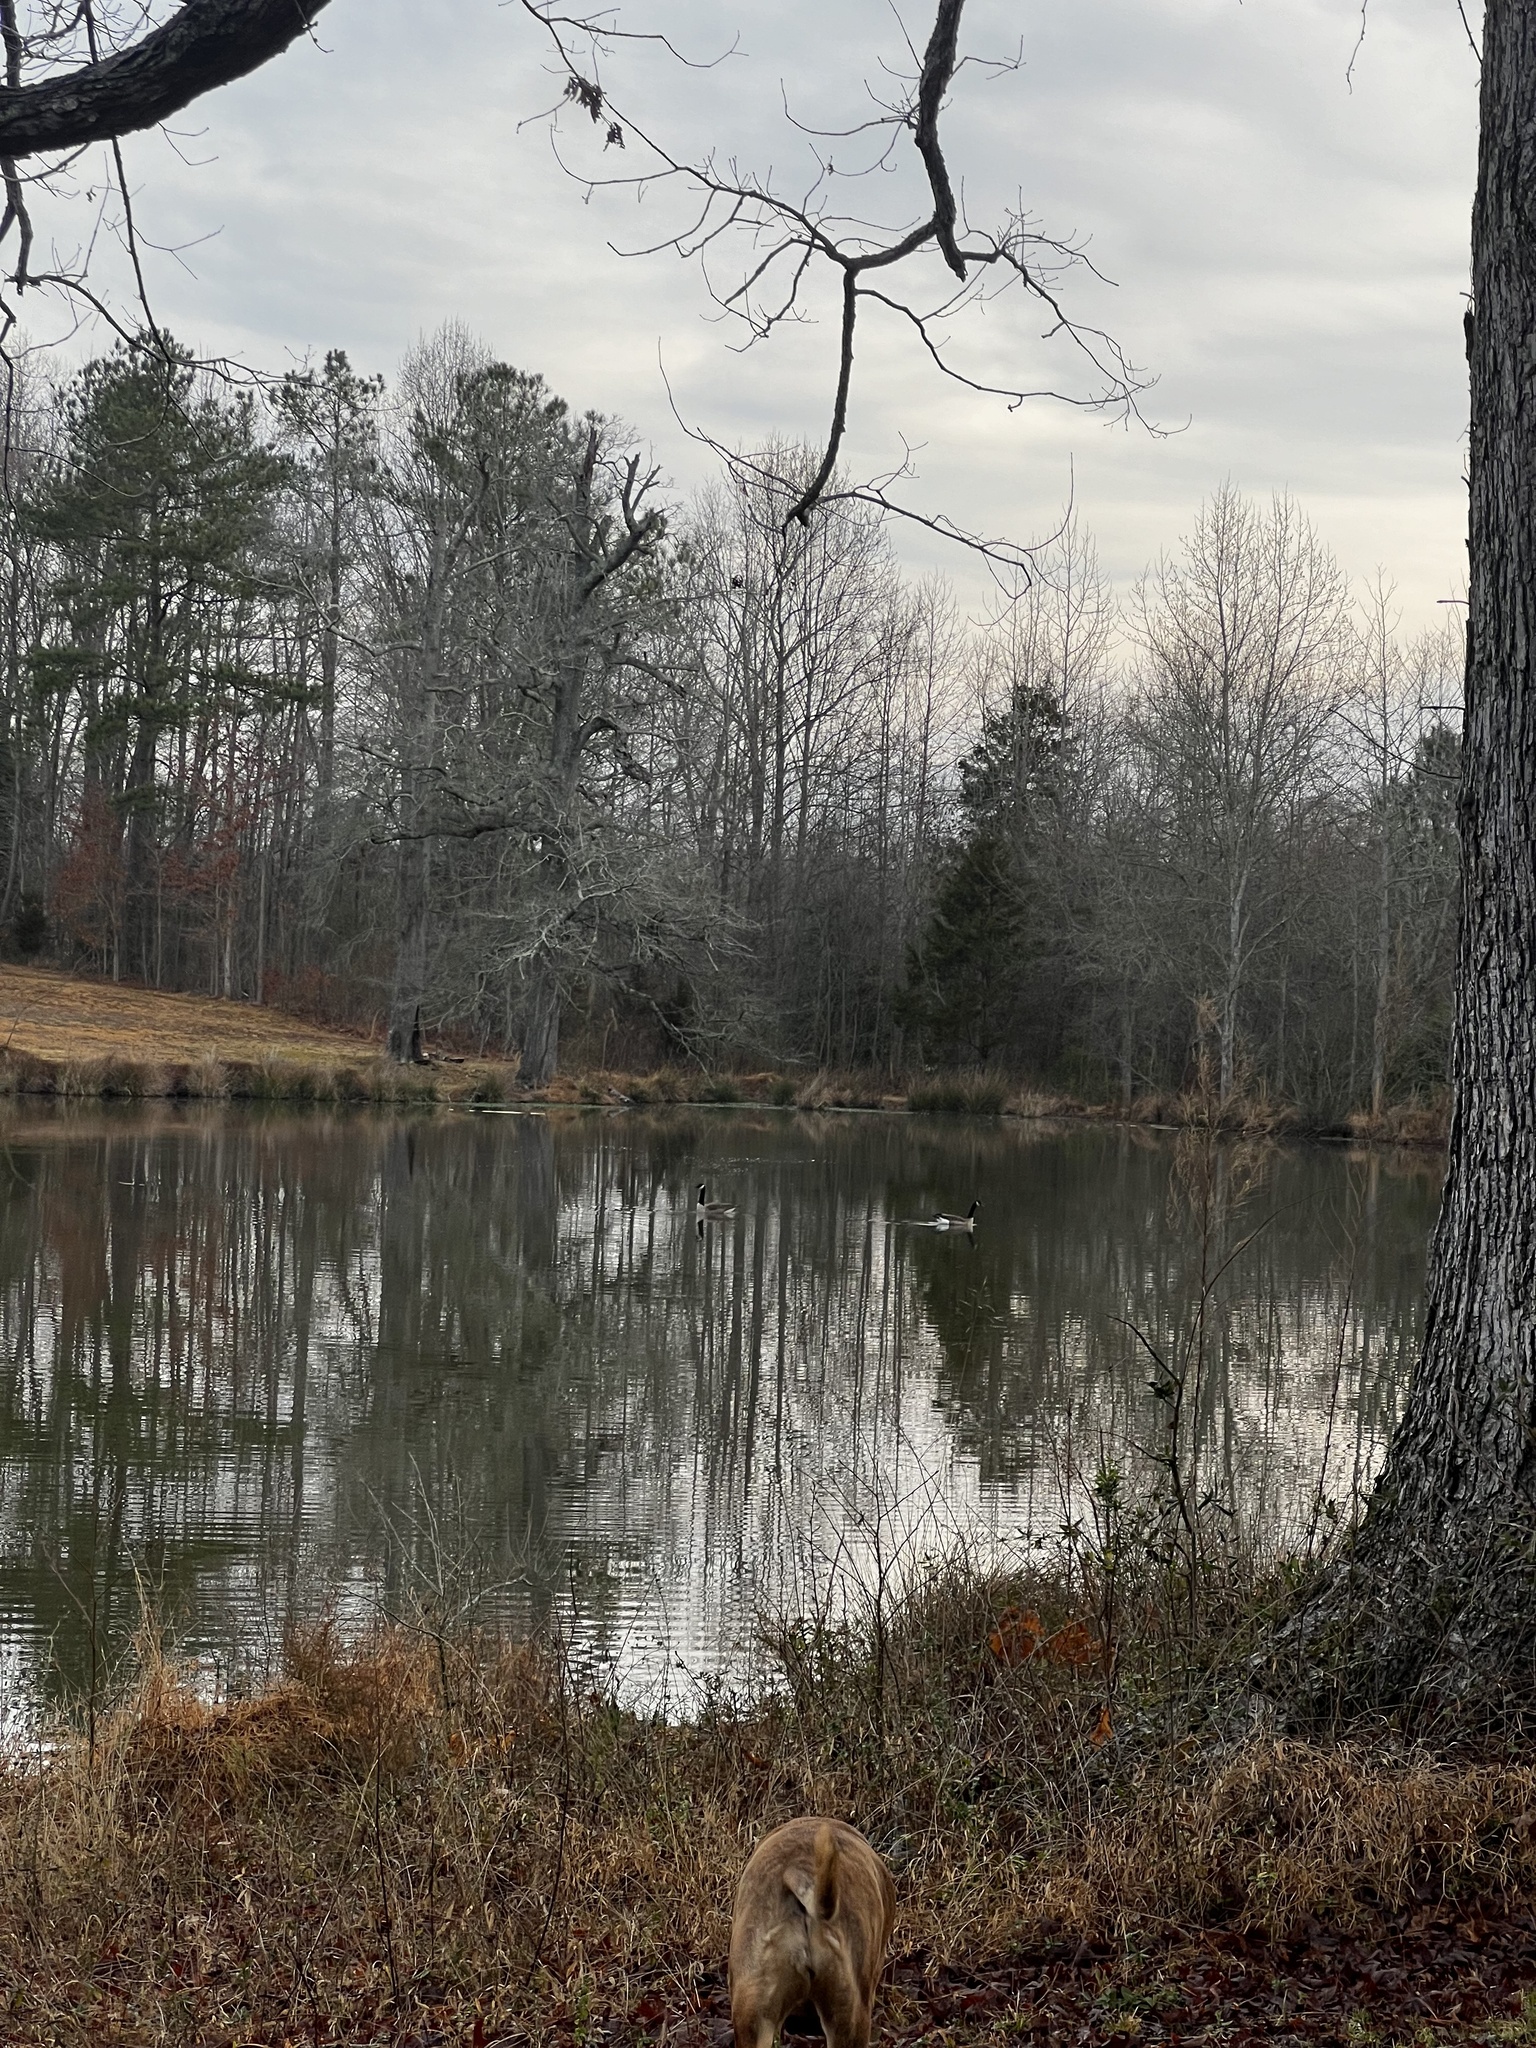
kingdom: Animalia
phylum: Chordata
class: Aves
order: Anseriformes
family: Anatidae
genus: Branta
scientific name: Branta canadensis
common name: Canada goose
